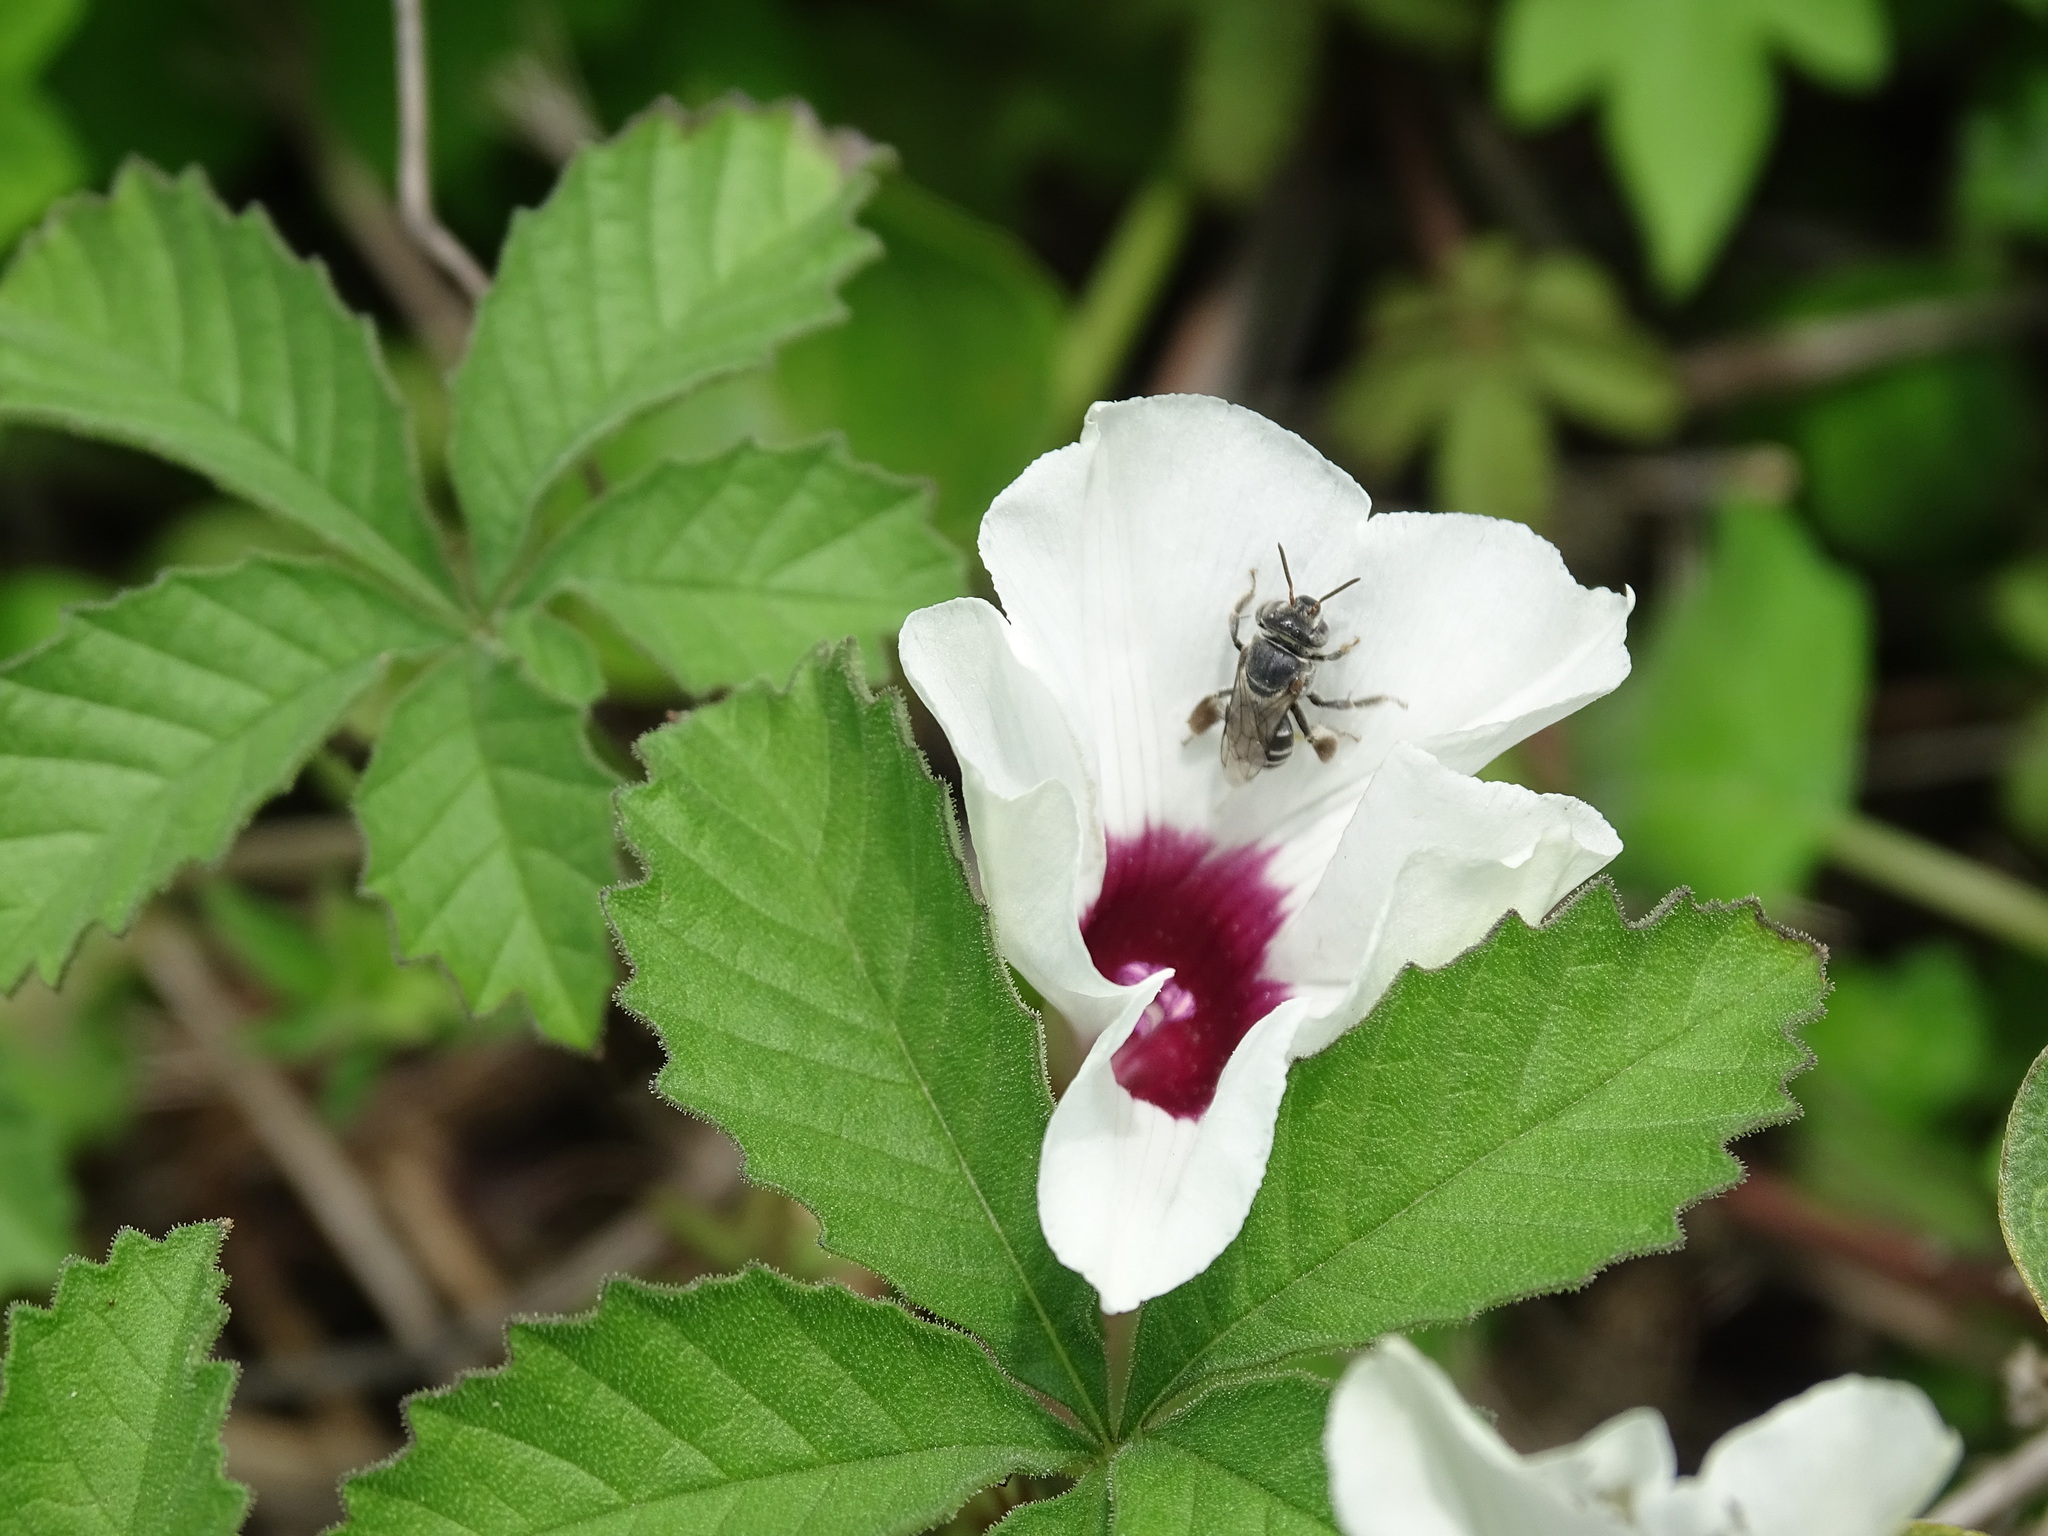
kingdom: Plantae
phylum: Tracheophyta
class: Magnoliopsida
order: Solanales
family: Convolvulaceae
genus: Distimake
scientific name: Distimake lobulibracteatus
